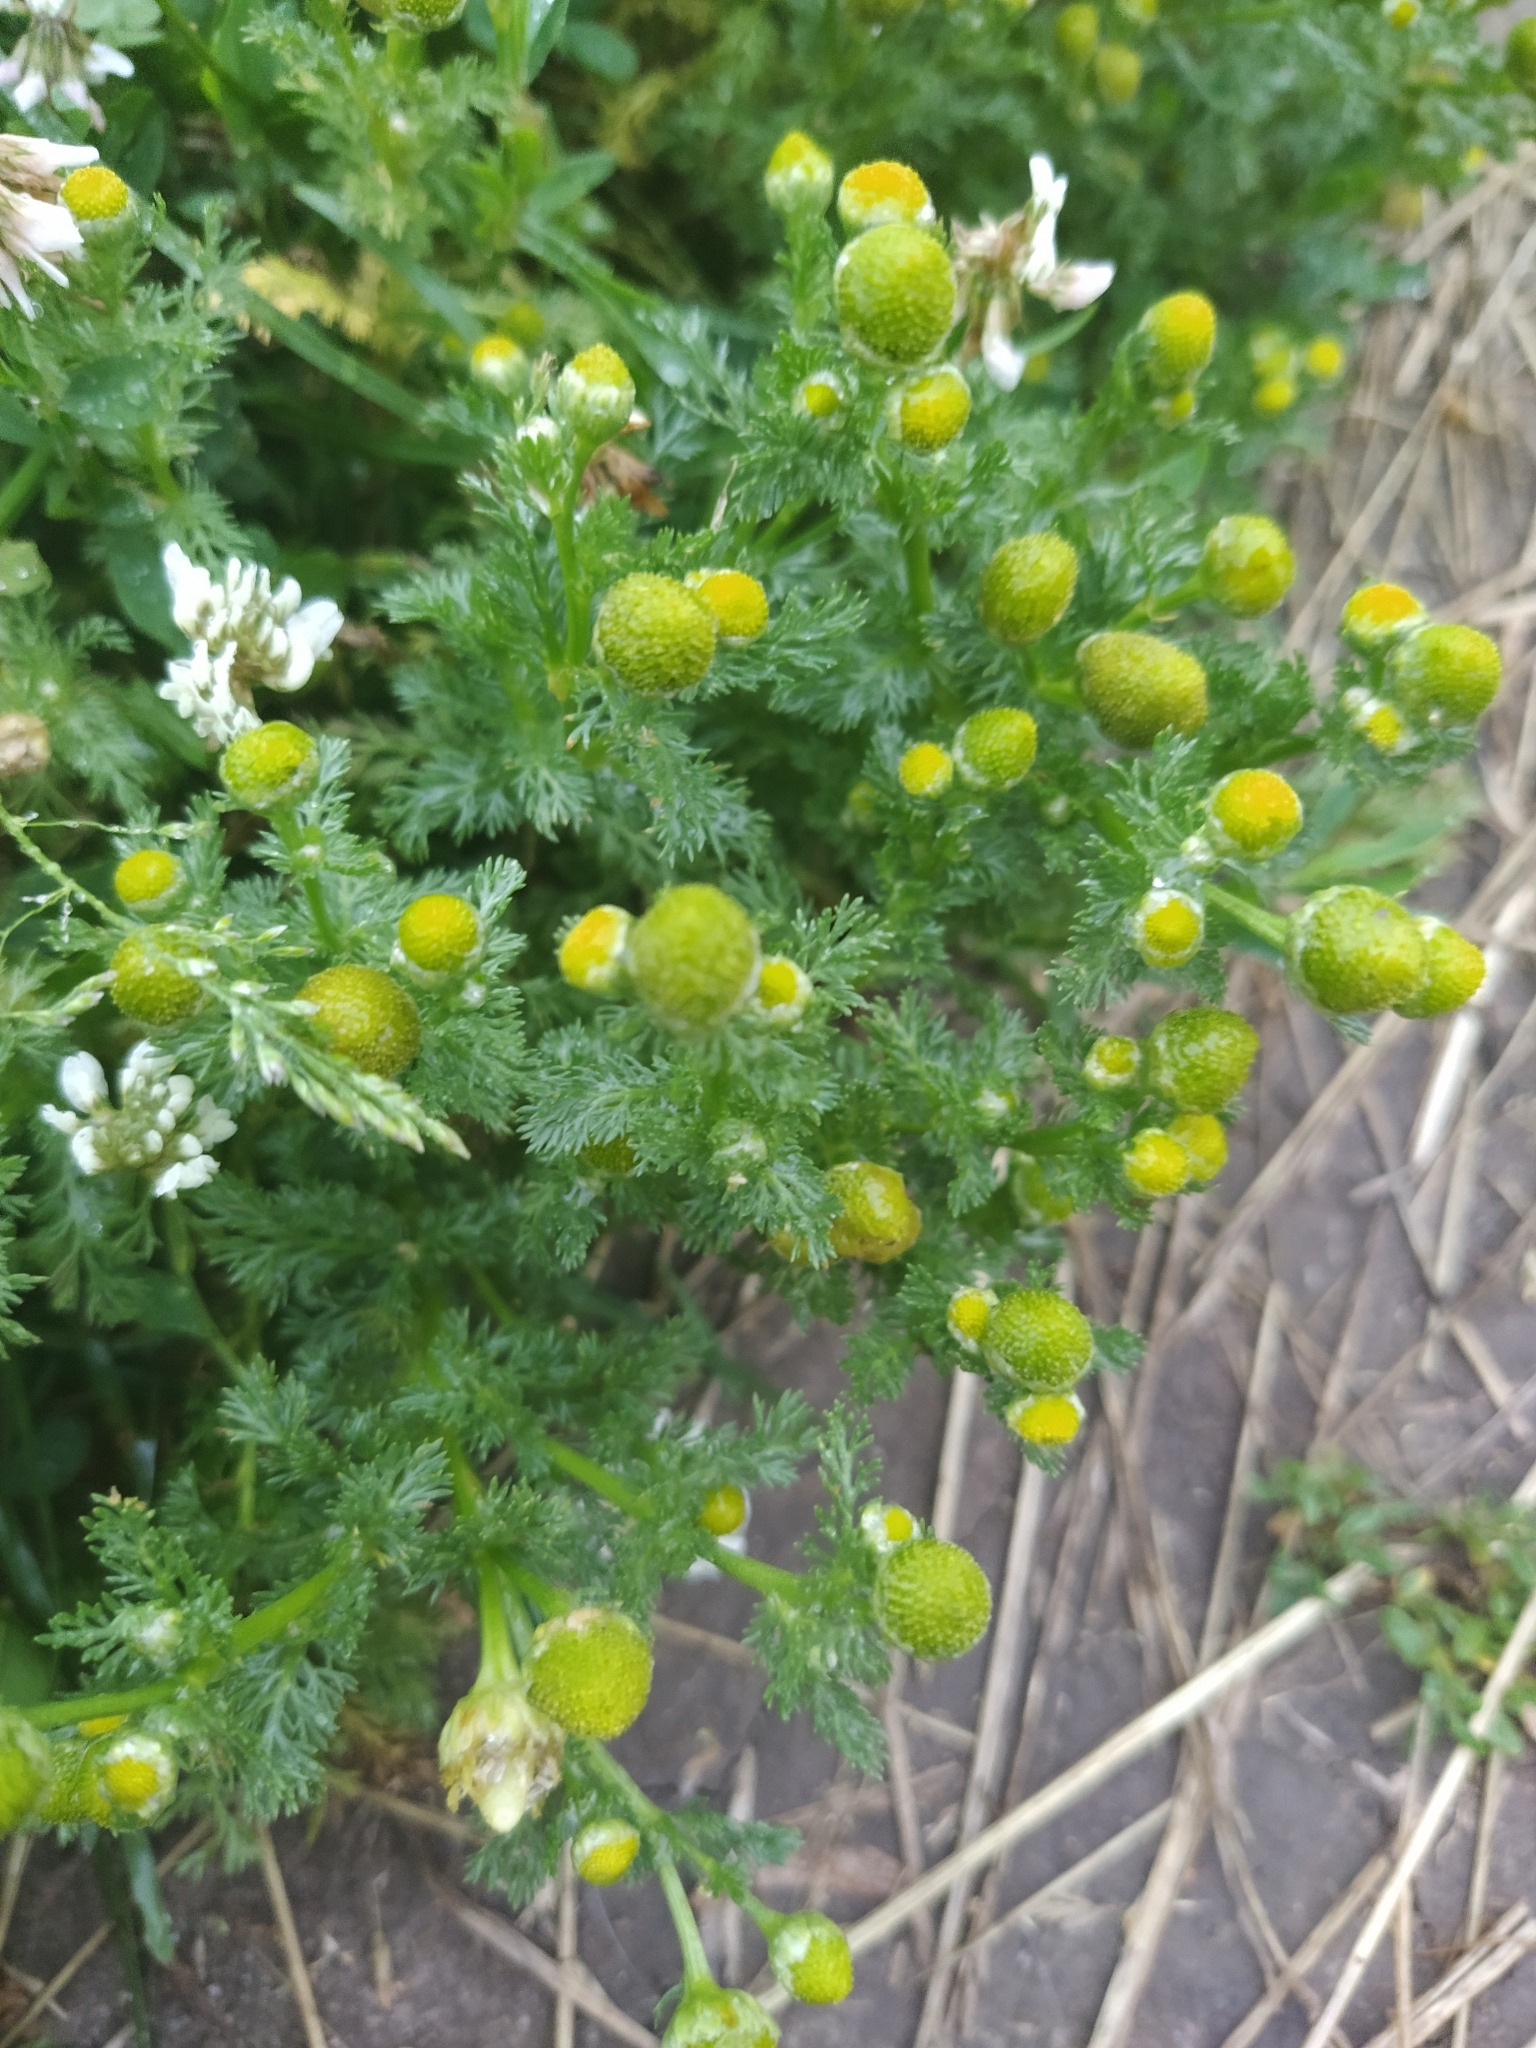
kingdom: Plantae
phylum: Tracheophyta
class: Magnoliopsida
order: Asterales
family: Asteraceae
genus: Matricaria
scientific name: Matricaria discoidea
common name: Disc mayweed
